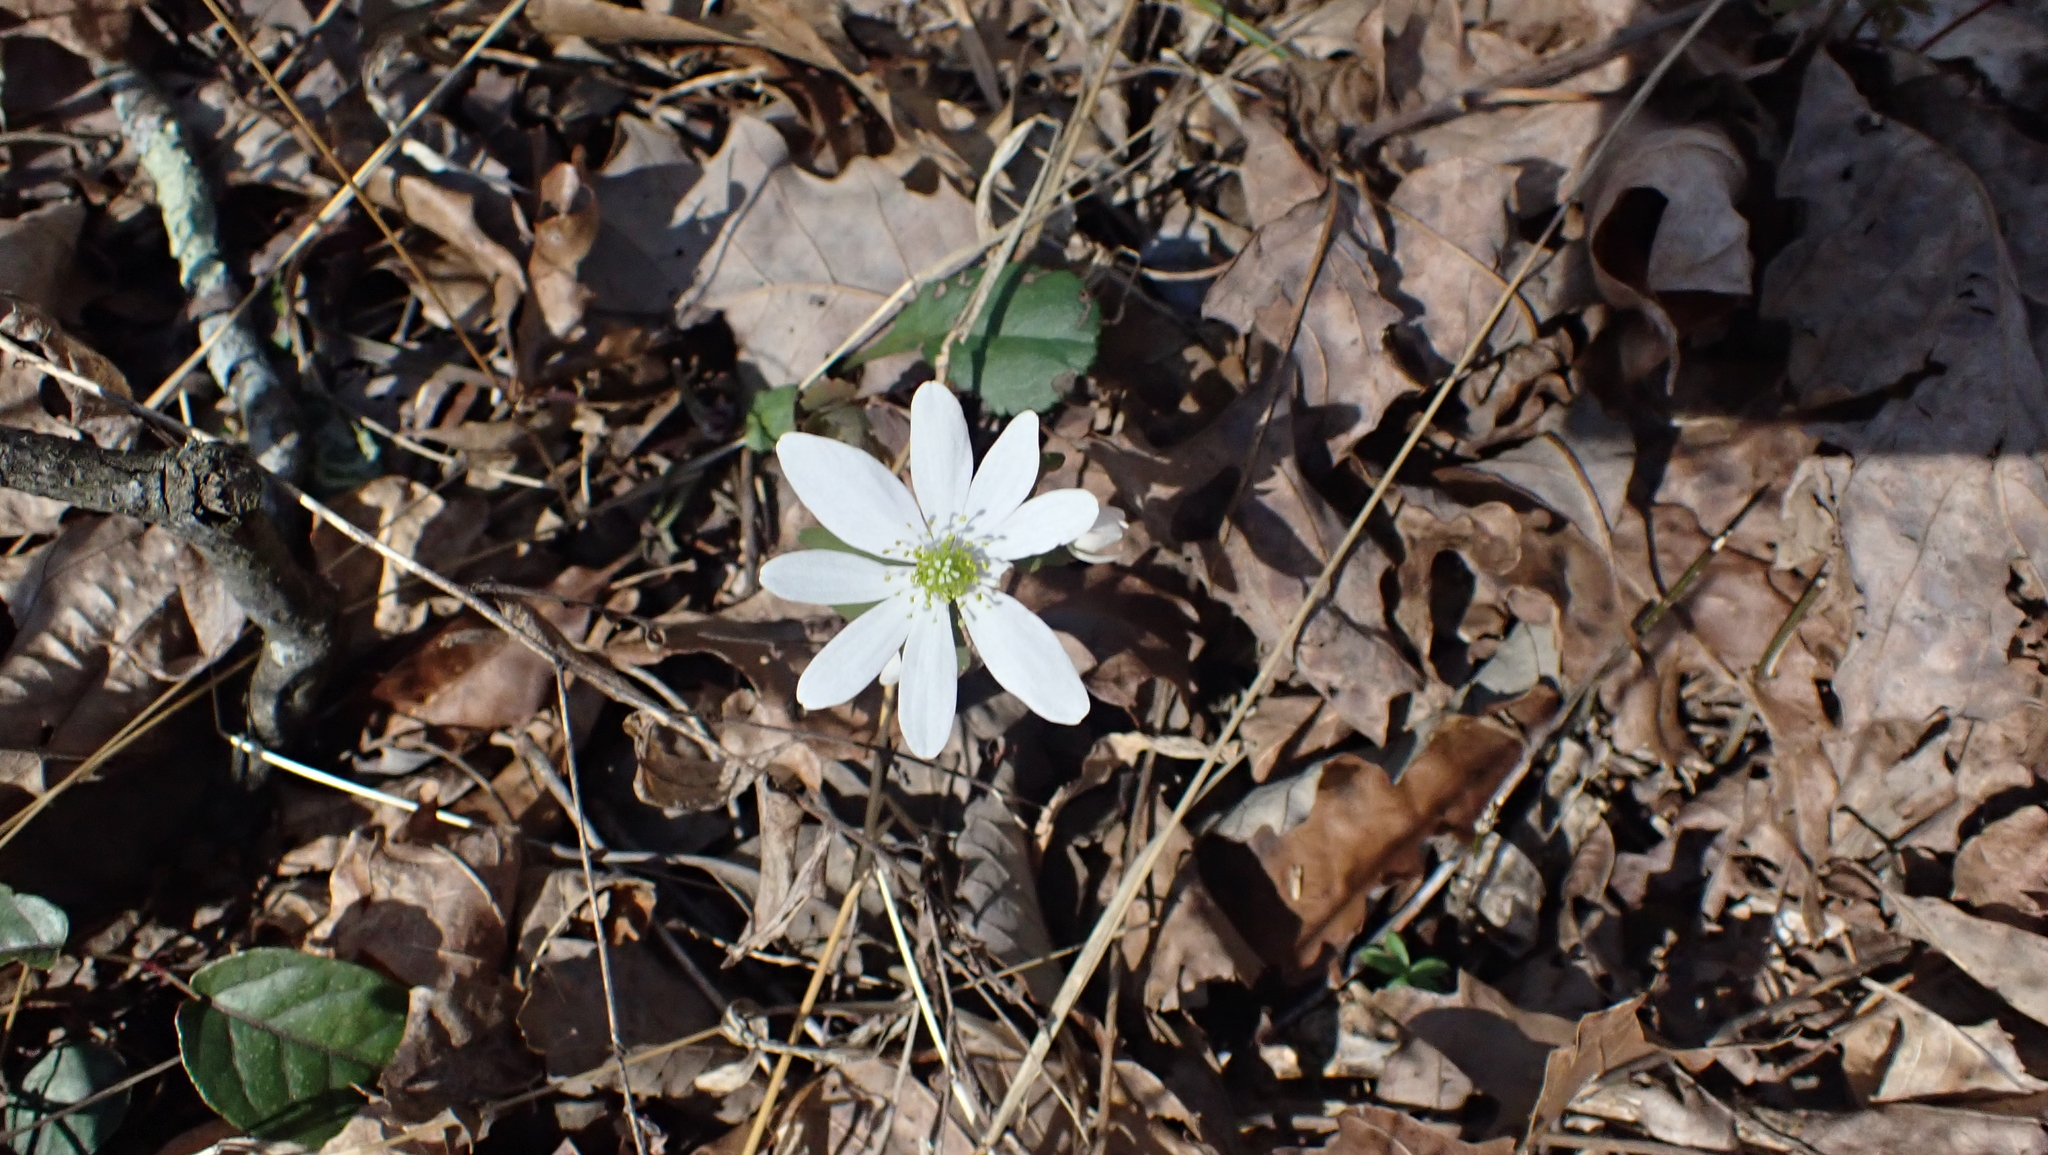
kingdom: Plantae
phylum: Tracheophyta
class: Magnoliopsida
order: Ranunculales
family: Ranunculaceae
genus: Thalictrum
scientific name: Thalictrum thalictroides
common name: Rue-anemone
